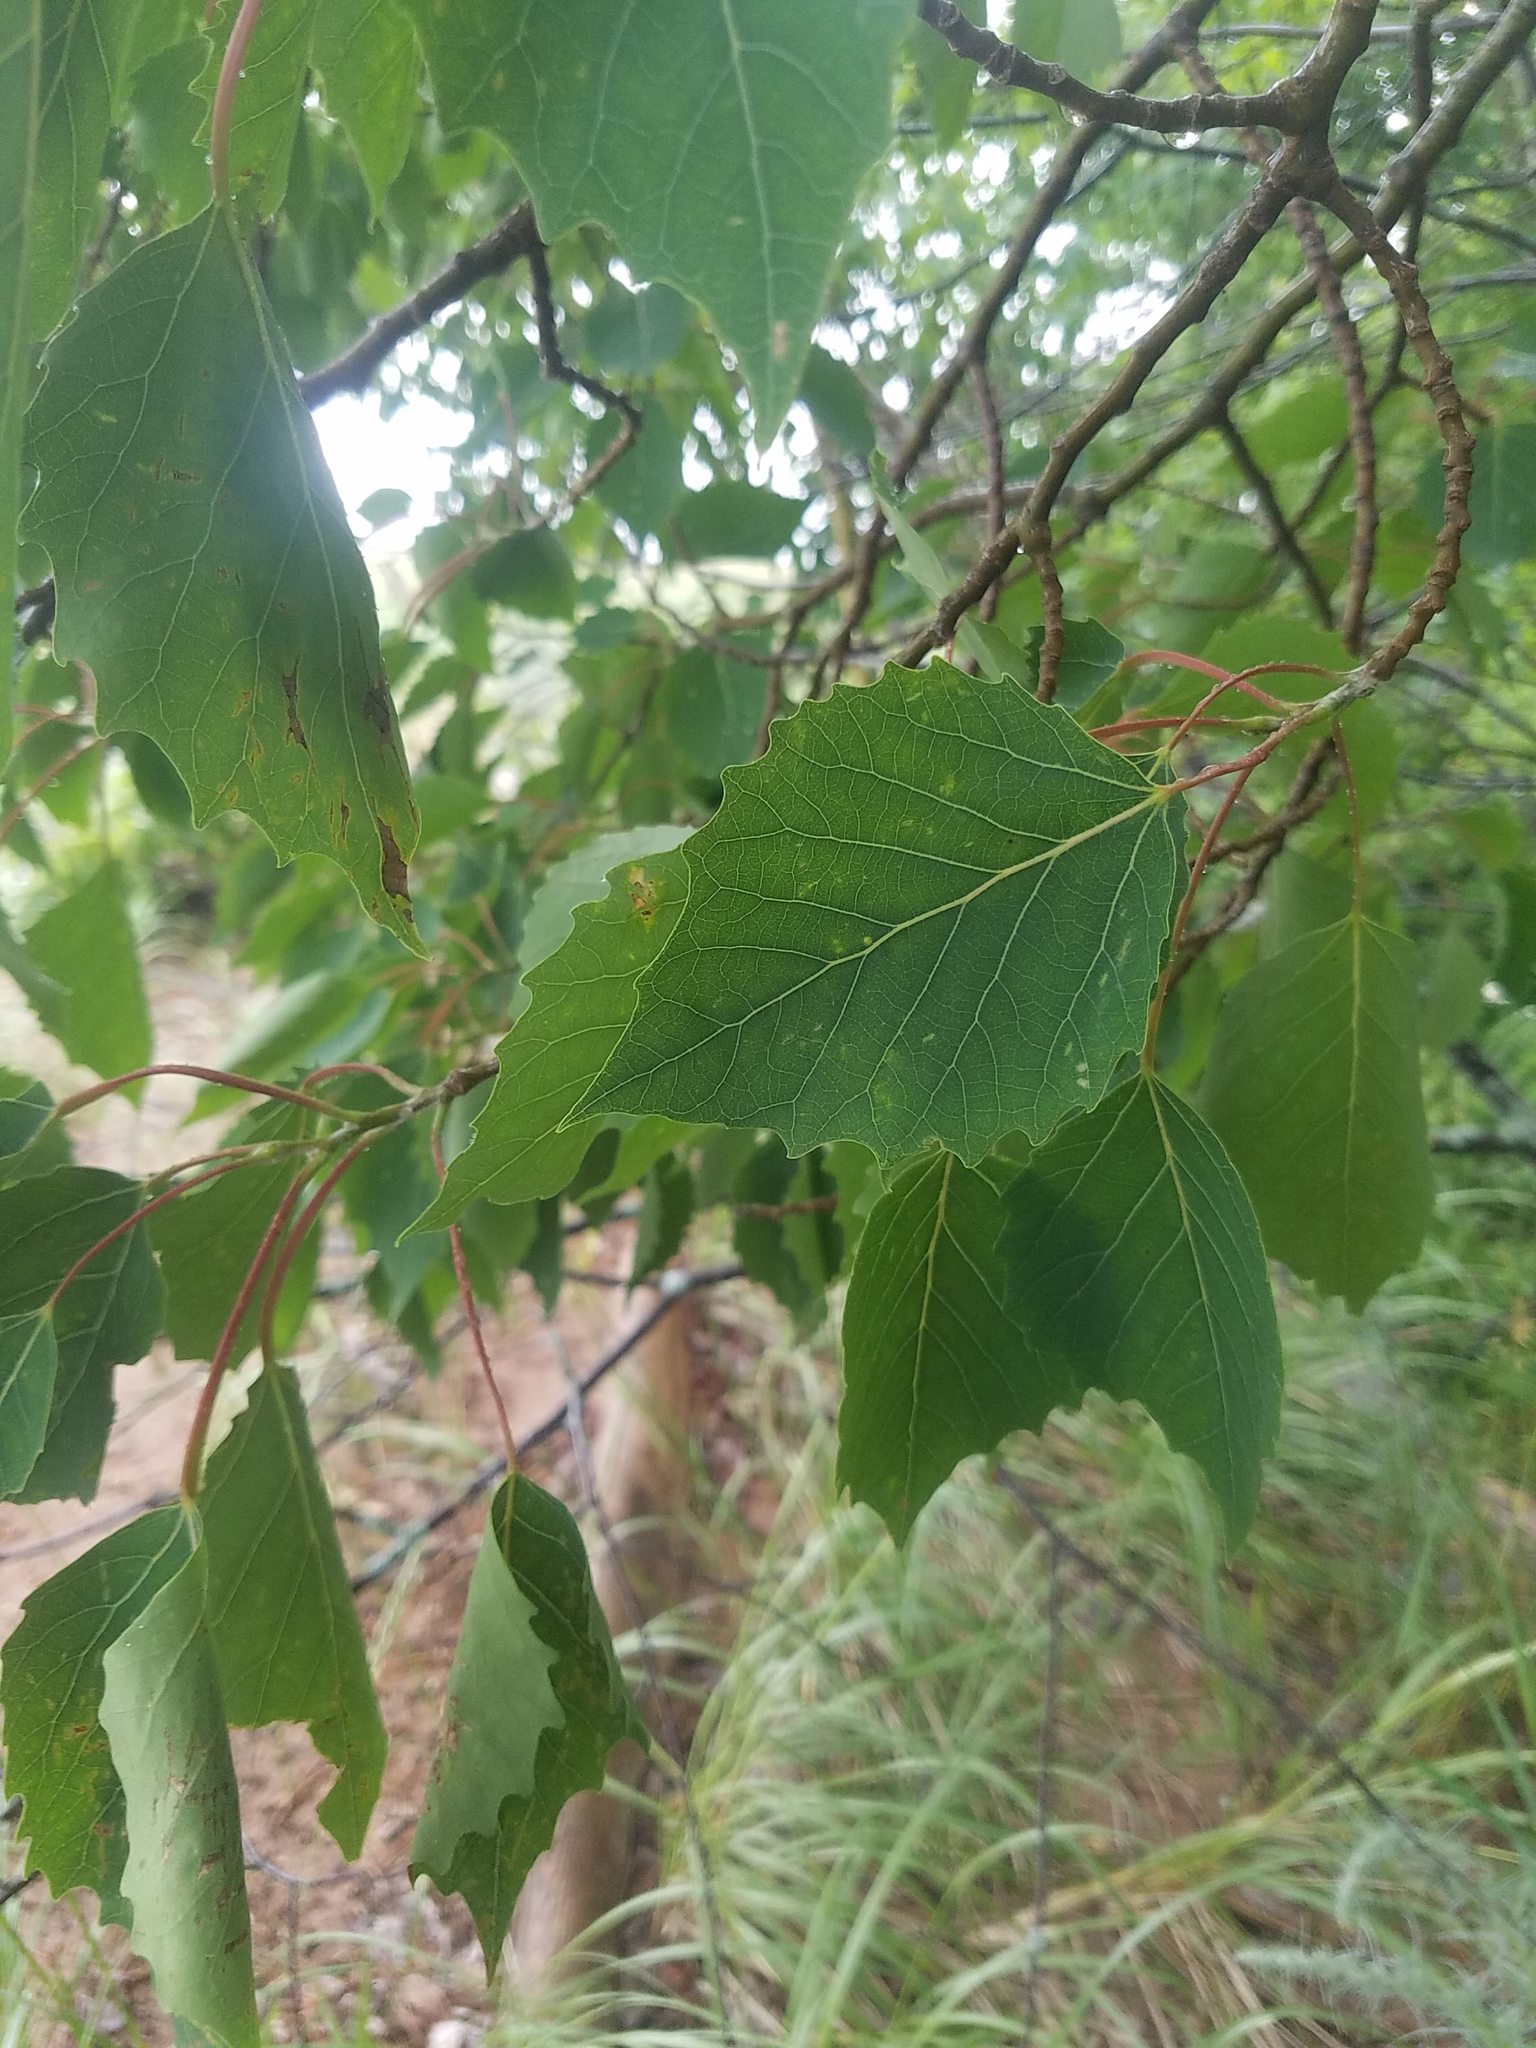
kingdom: Plantae
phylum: Tracheophyta
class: Magnoliopsida
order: Malpighiales
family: Salicaceae
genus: Populus
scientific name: Populus grandidentata
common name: Bigtooth aspen
